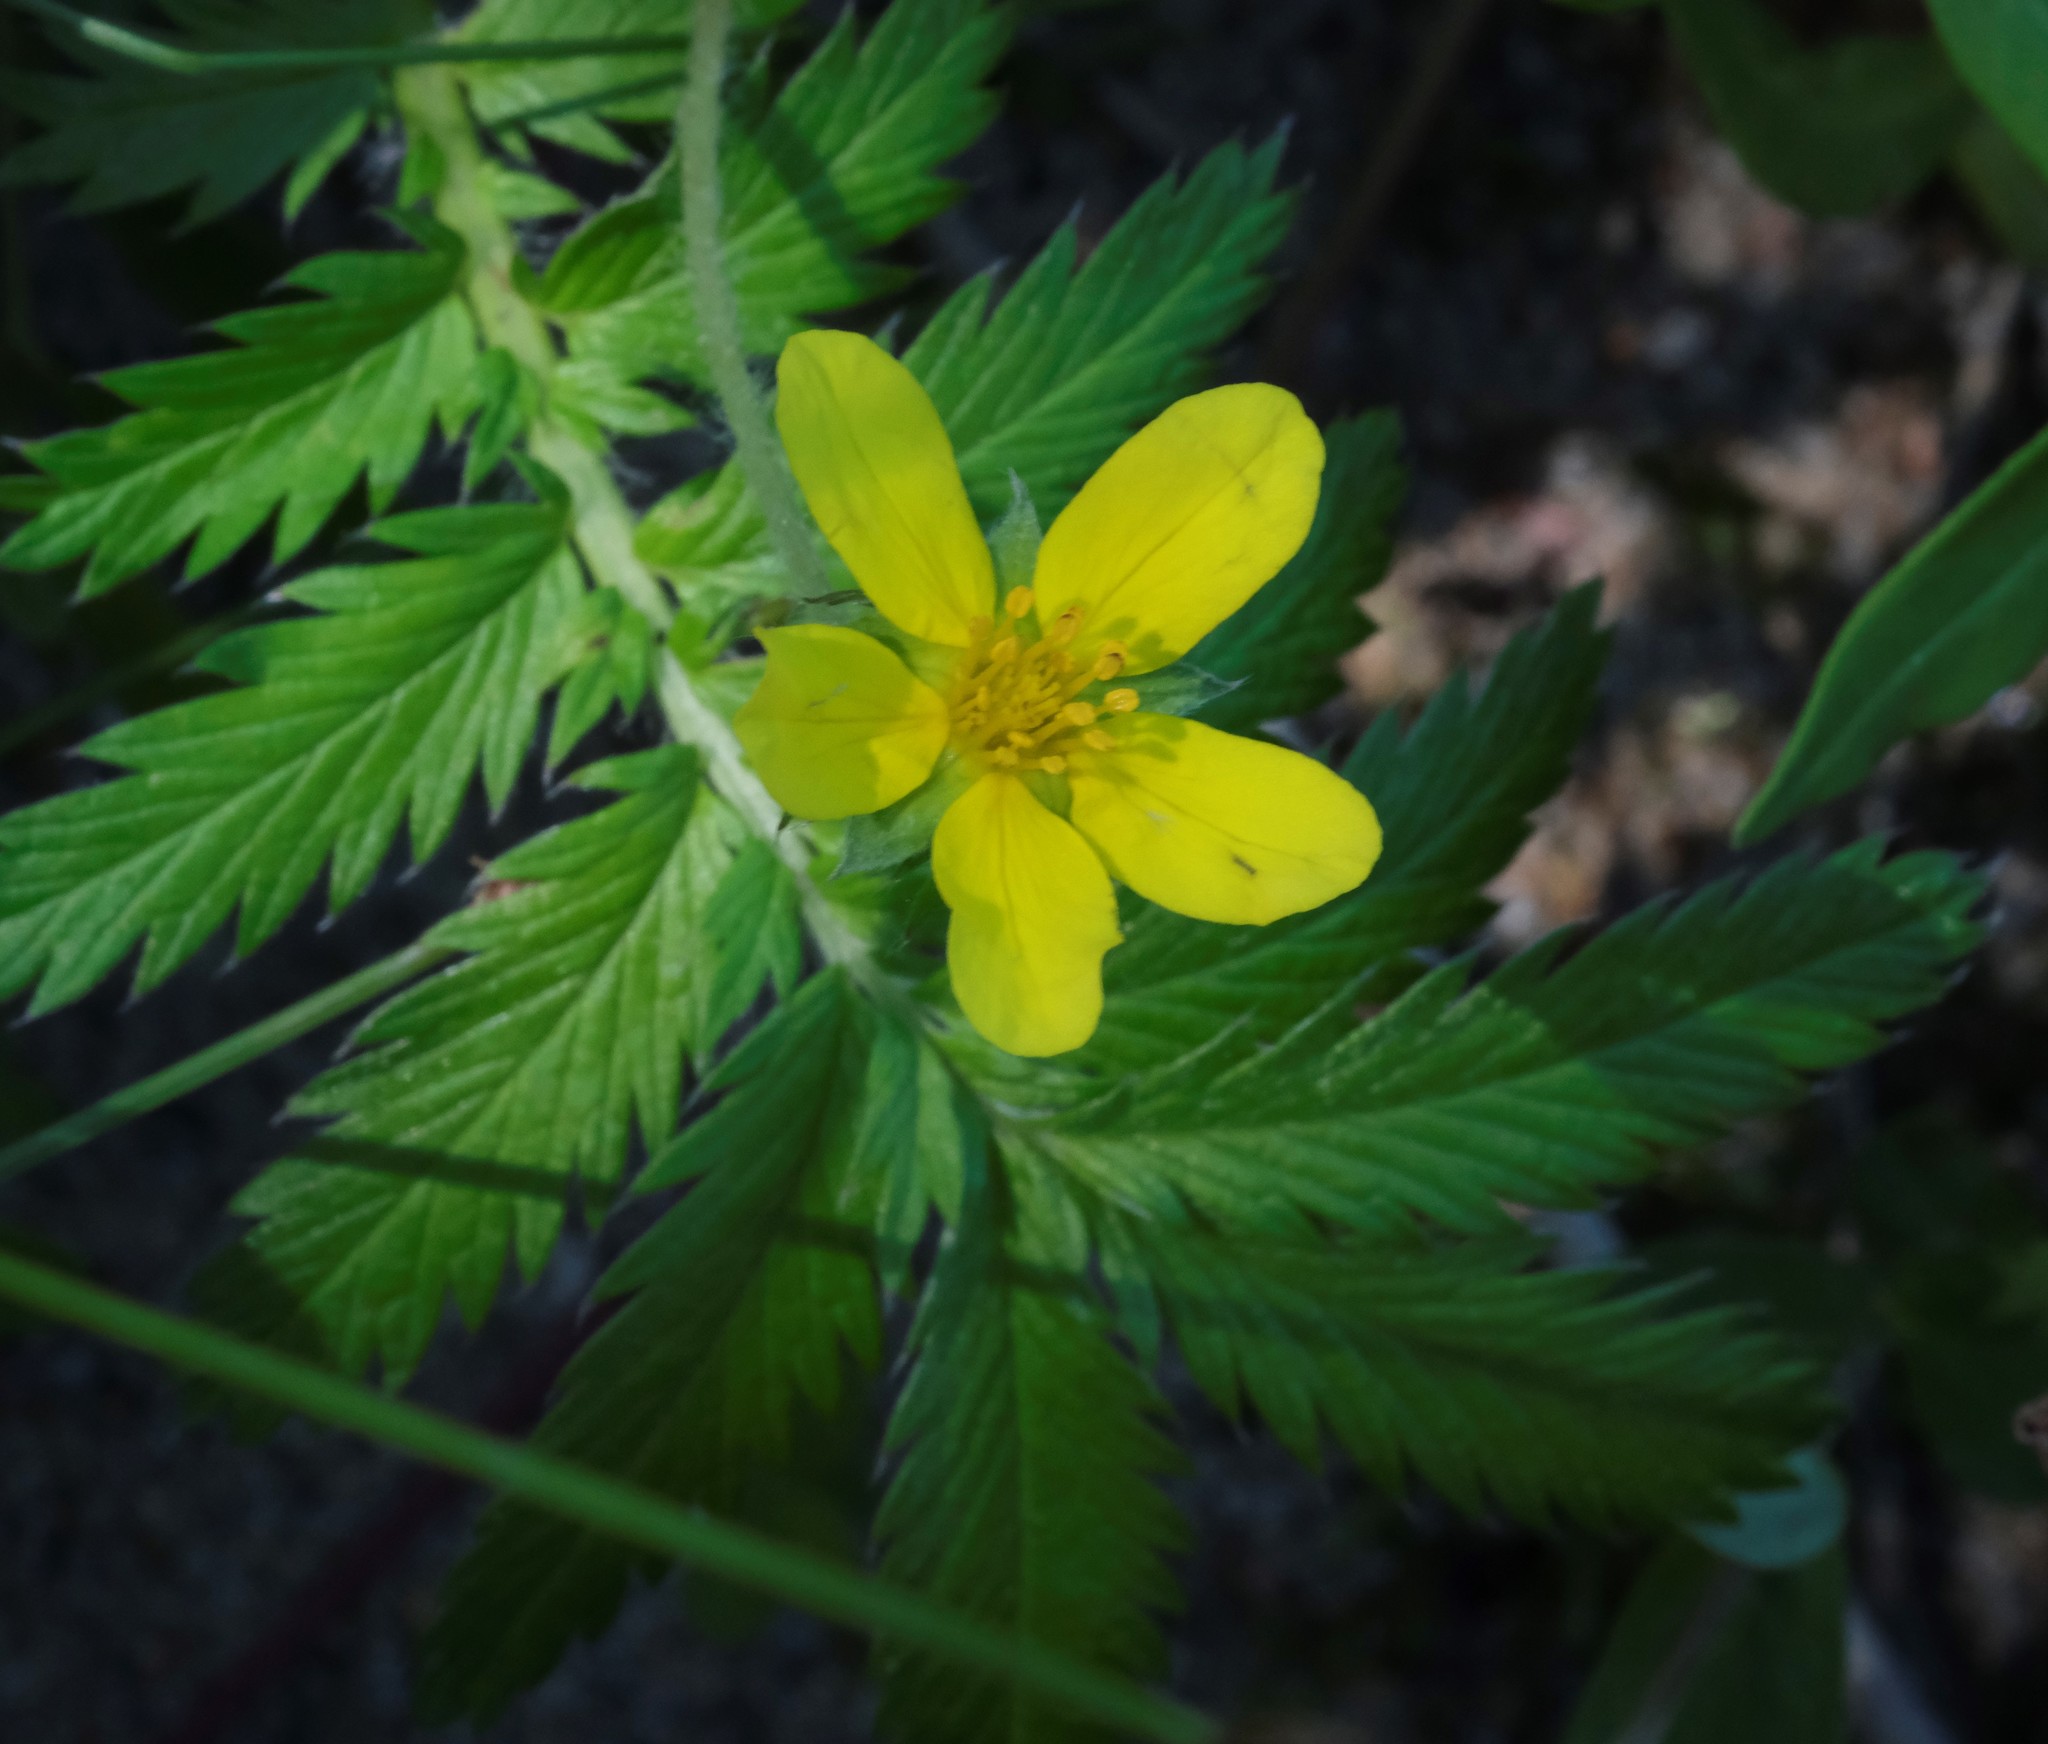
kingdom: Plantae
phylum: Tracheophyta
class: Magnoliopsida
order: Rosales
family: Rosaceae
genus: Argentina
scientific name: Argentina anserina
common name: Common silverweed
